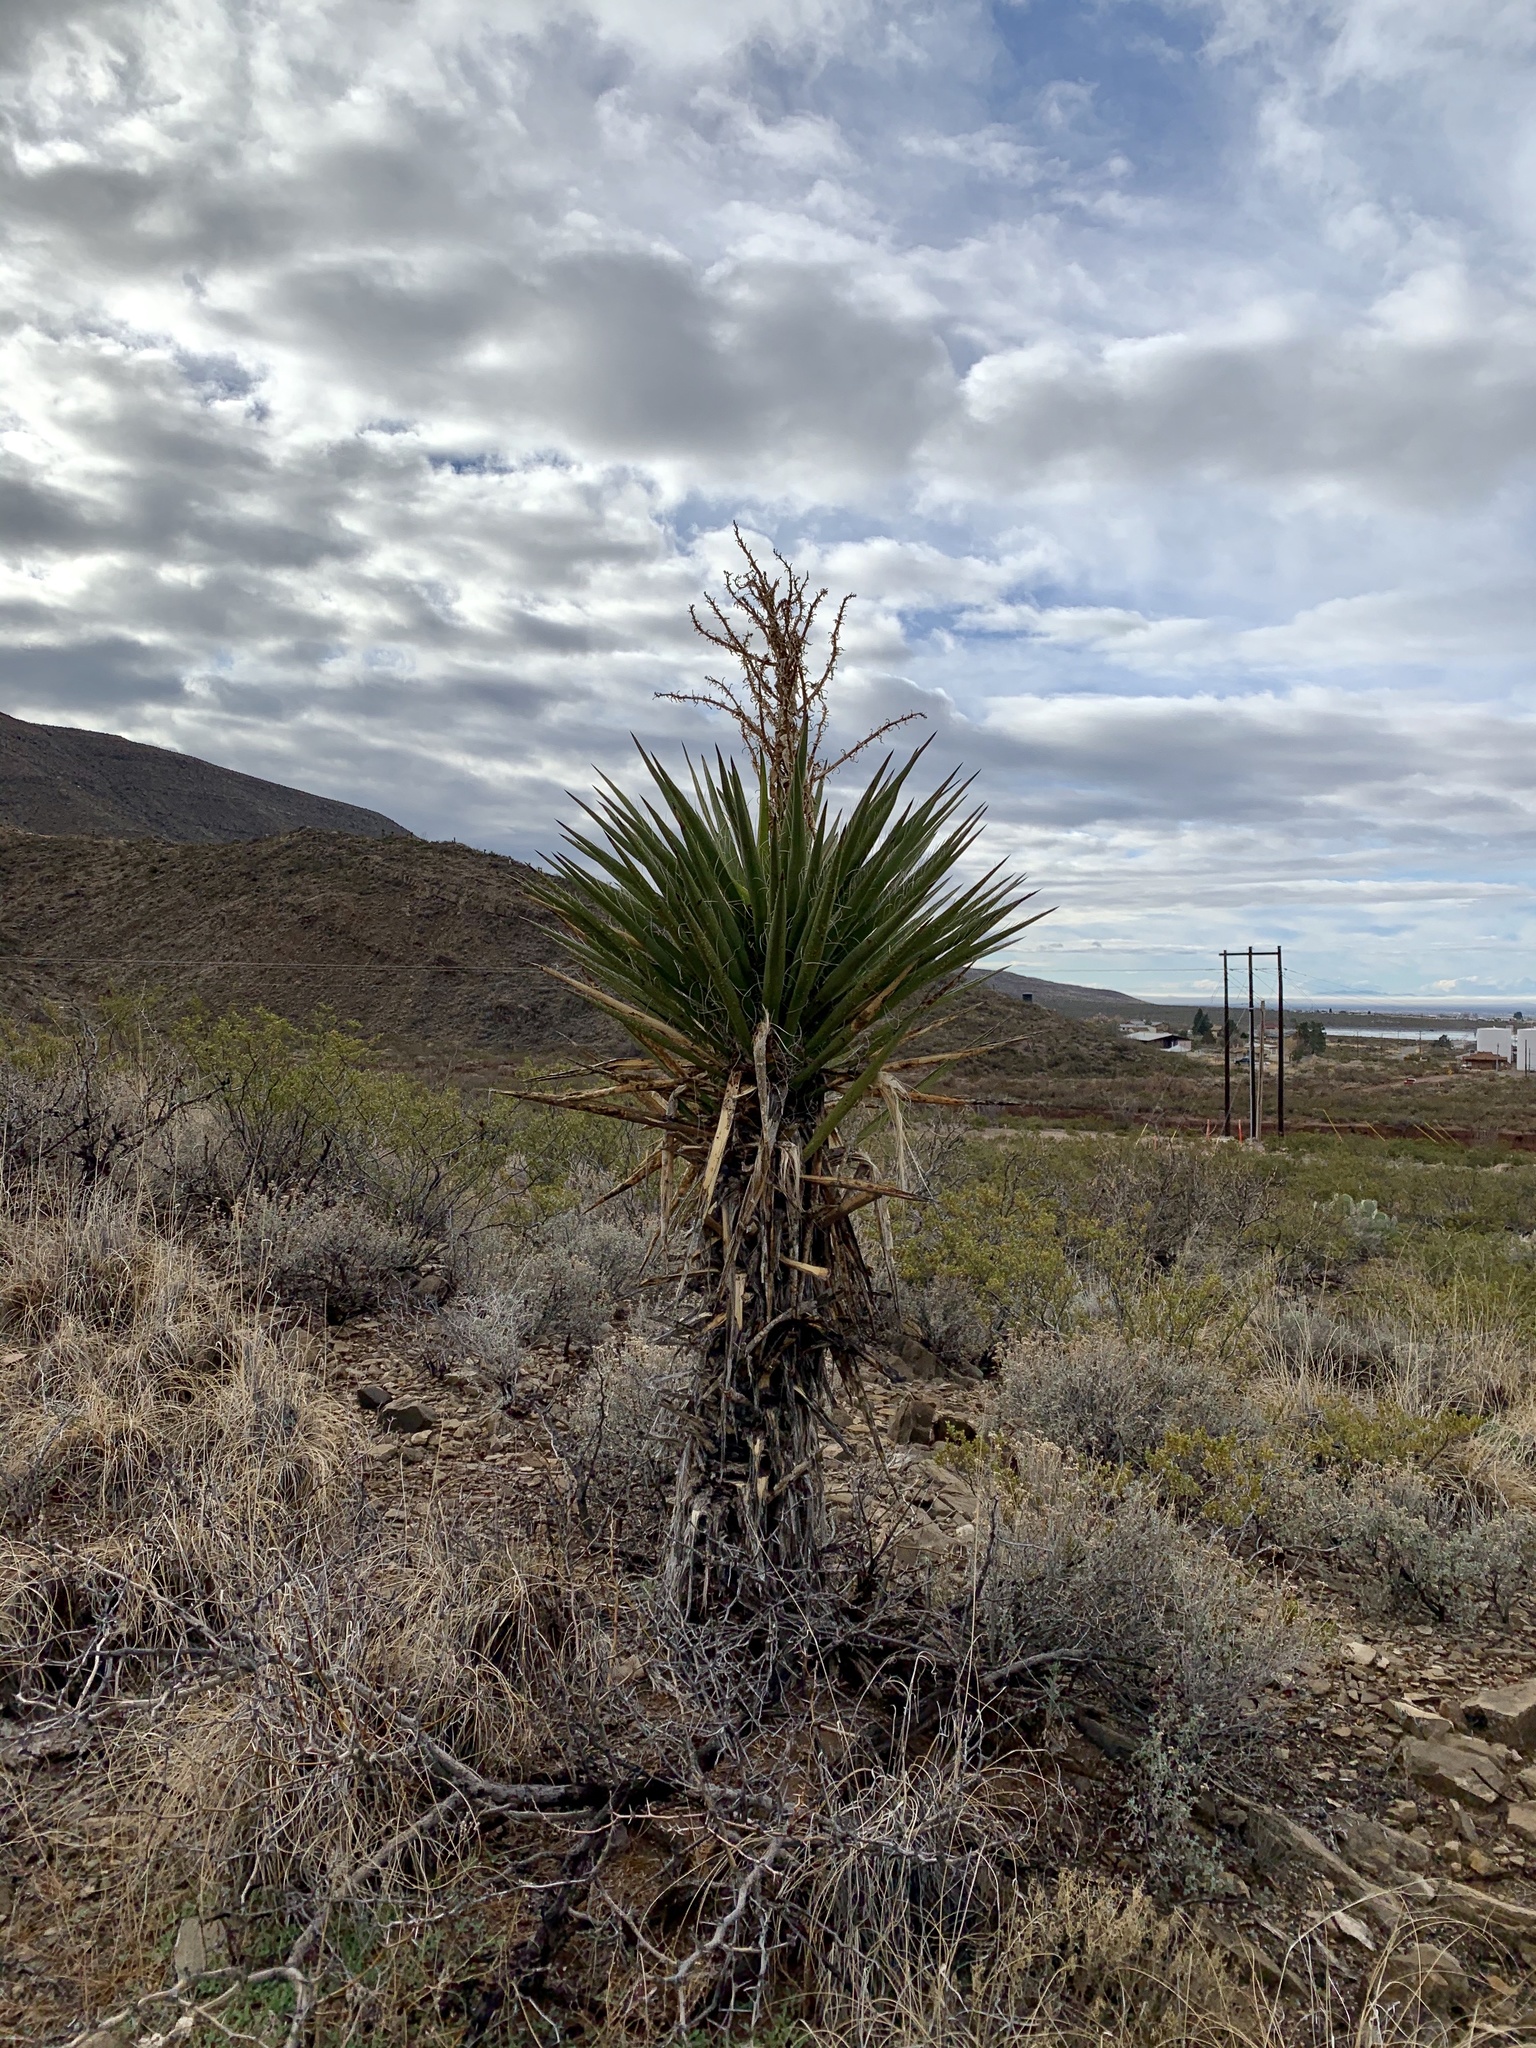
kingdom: Plantae
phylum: Tracheophyta
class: Liliopsida
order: Asparagales
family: Asparagaceae
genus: Yucca
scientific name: Yucca treculiana
